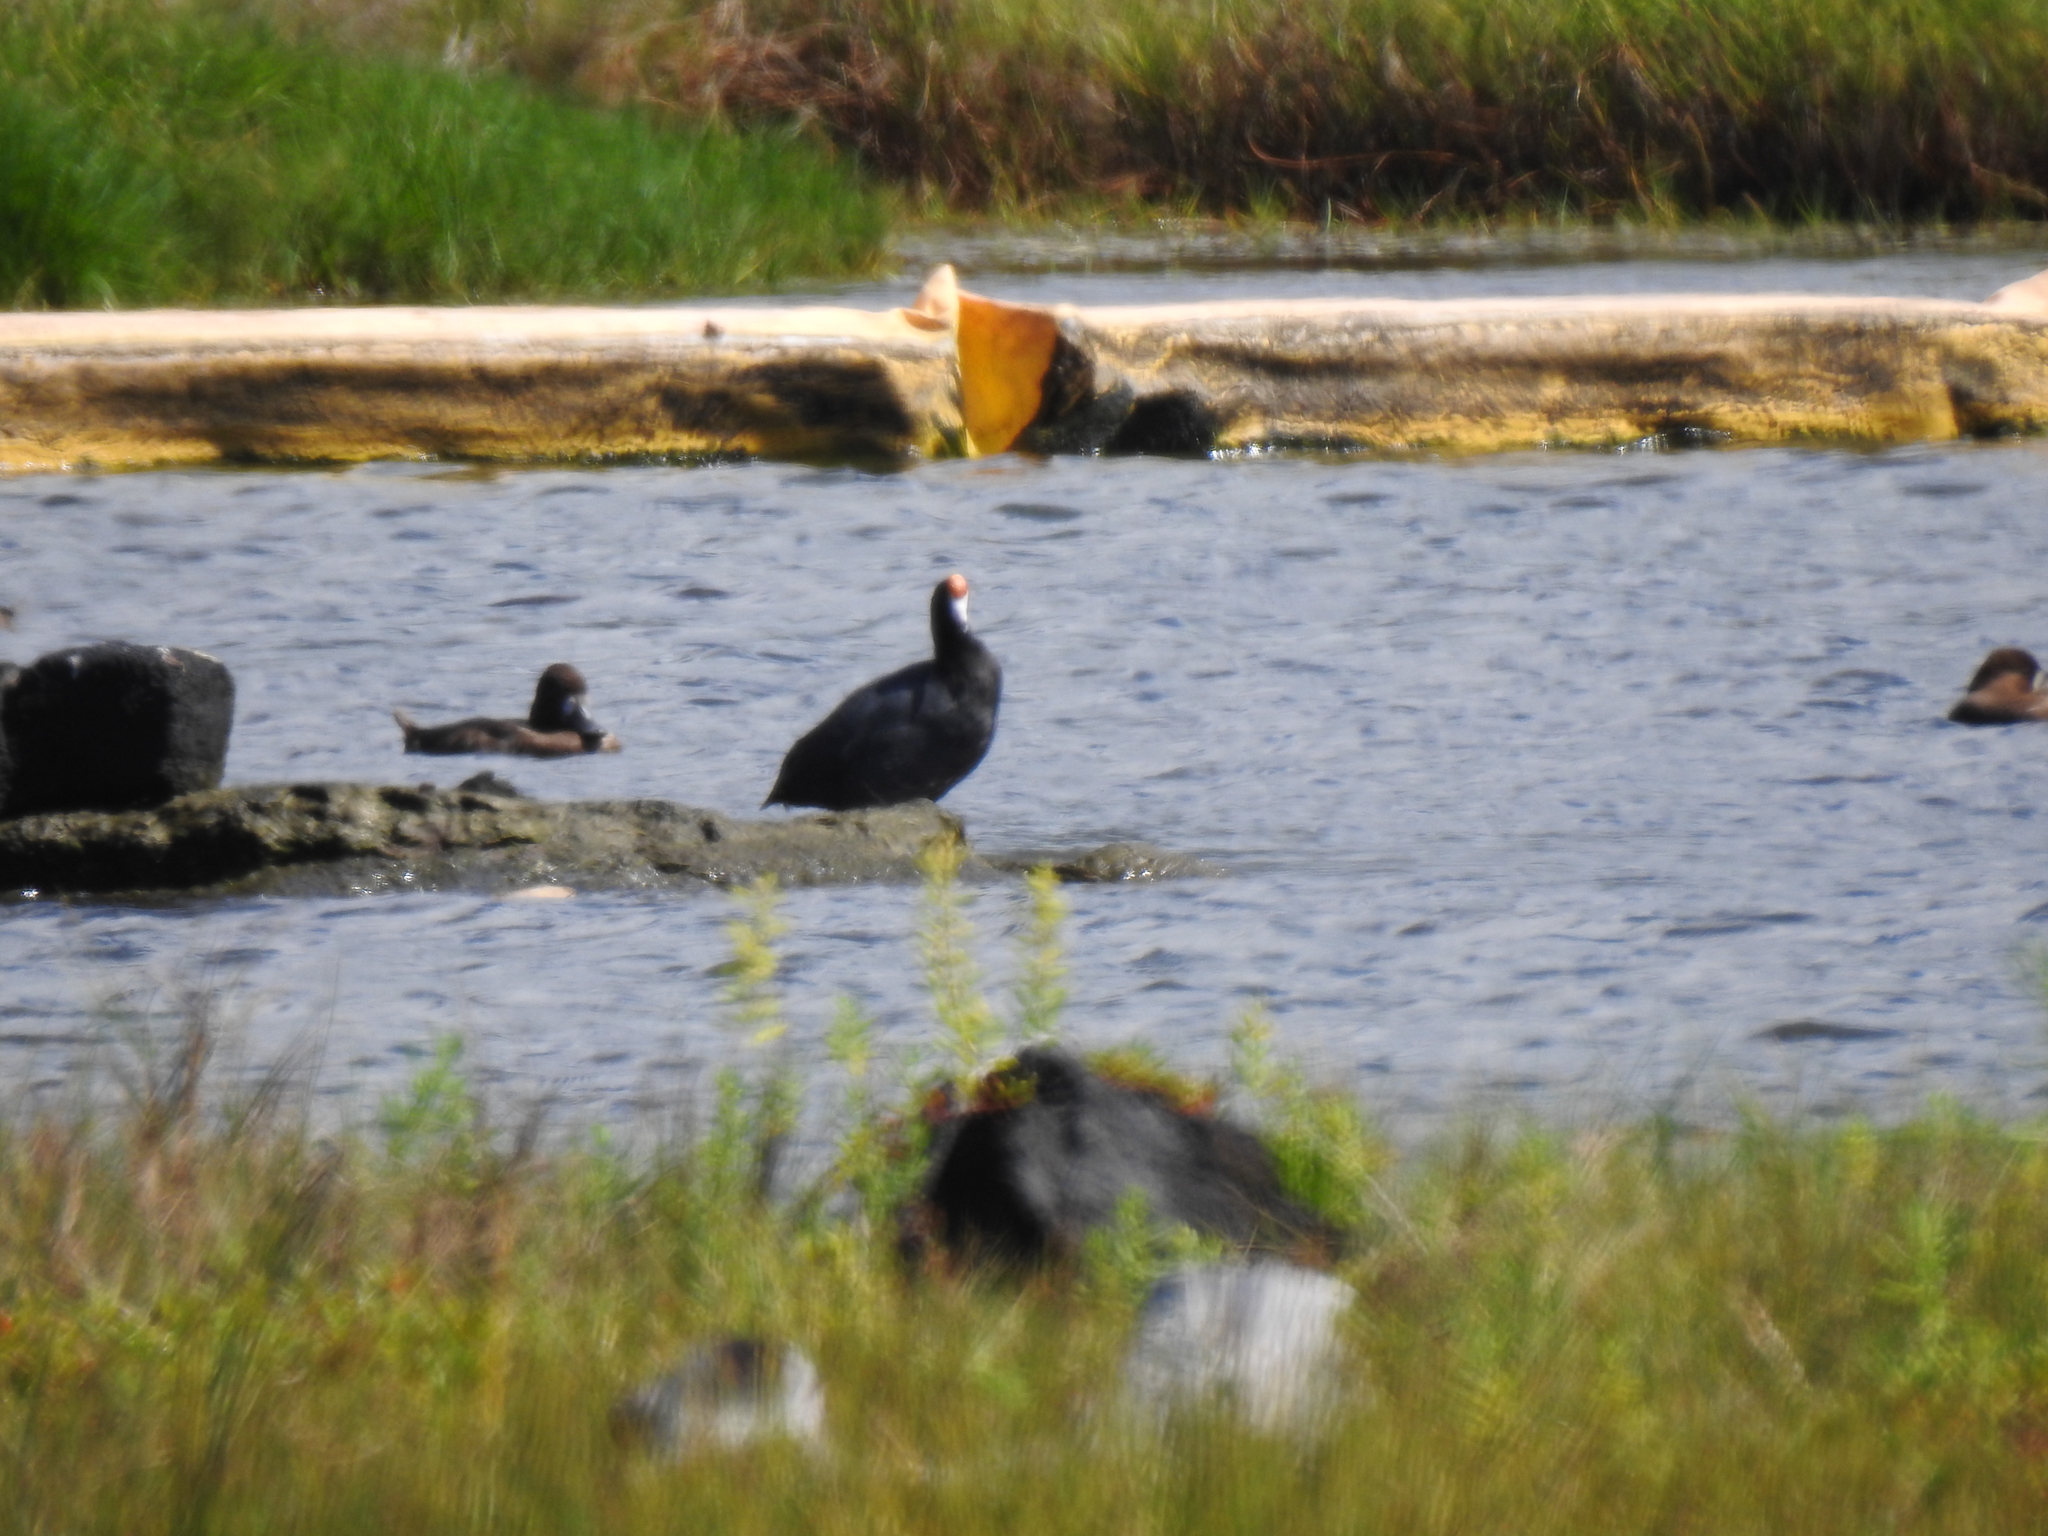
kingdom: Animalia
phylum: Chordata
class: Aves
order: Gruiformes
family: Rallidae
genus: Fulica
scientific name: Fulica alai
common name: Hawaiian coot
